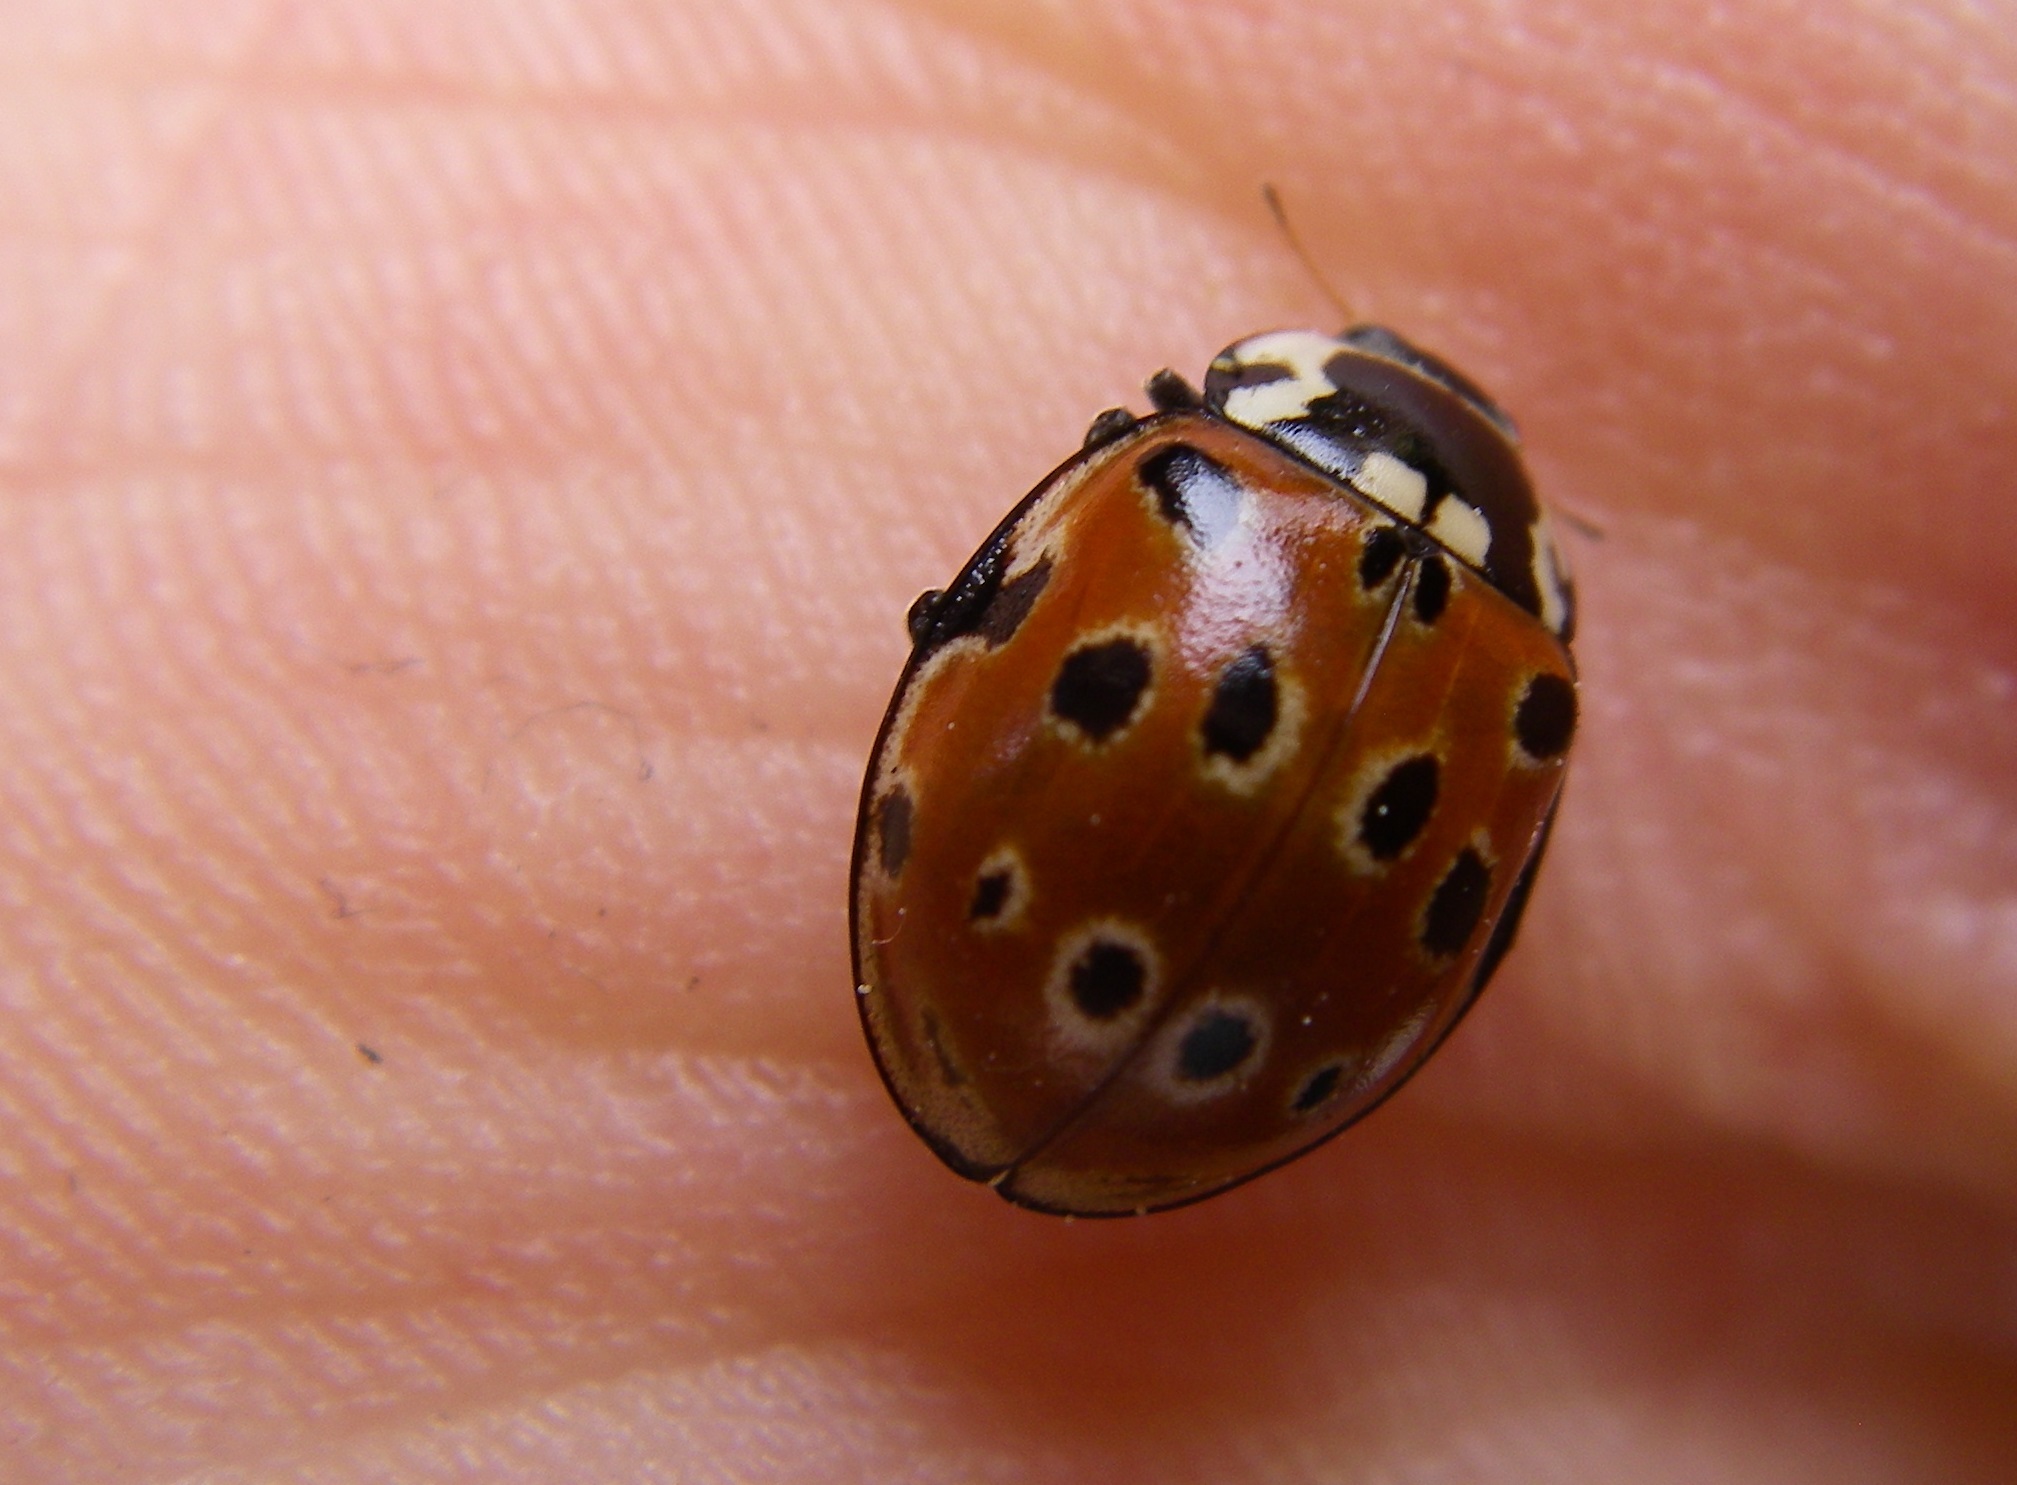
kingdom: Animalia
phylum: Arthropoda
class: Insecta
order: Coleoptera
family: Coccinellidae
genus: Anatis
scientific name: Anatis ocellata
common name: Eyed ladybird
